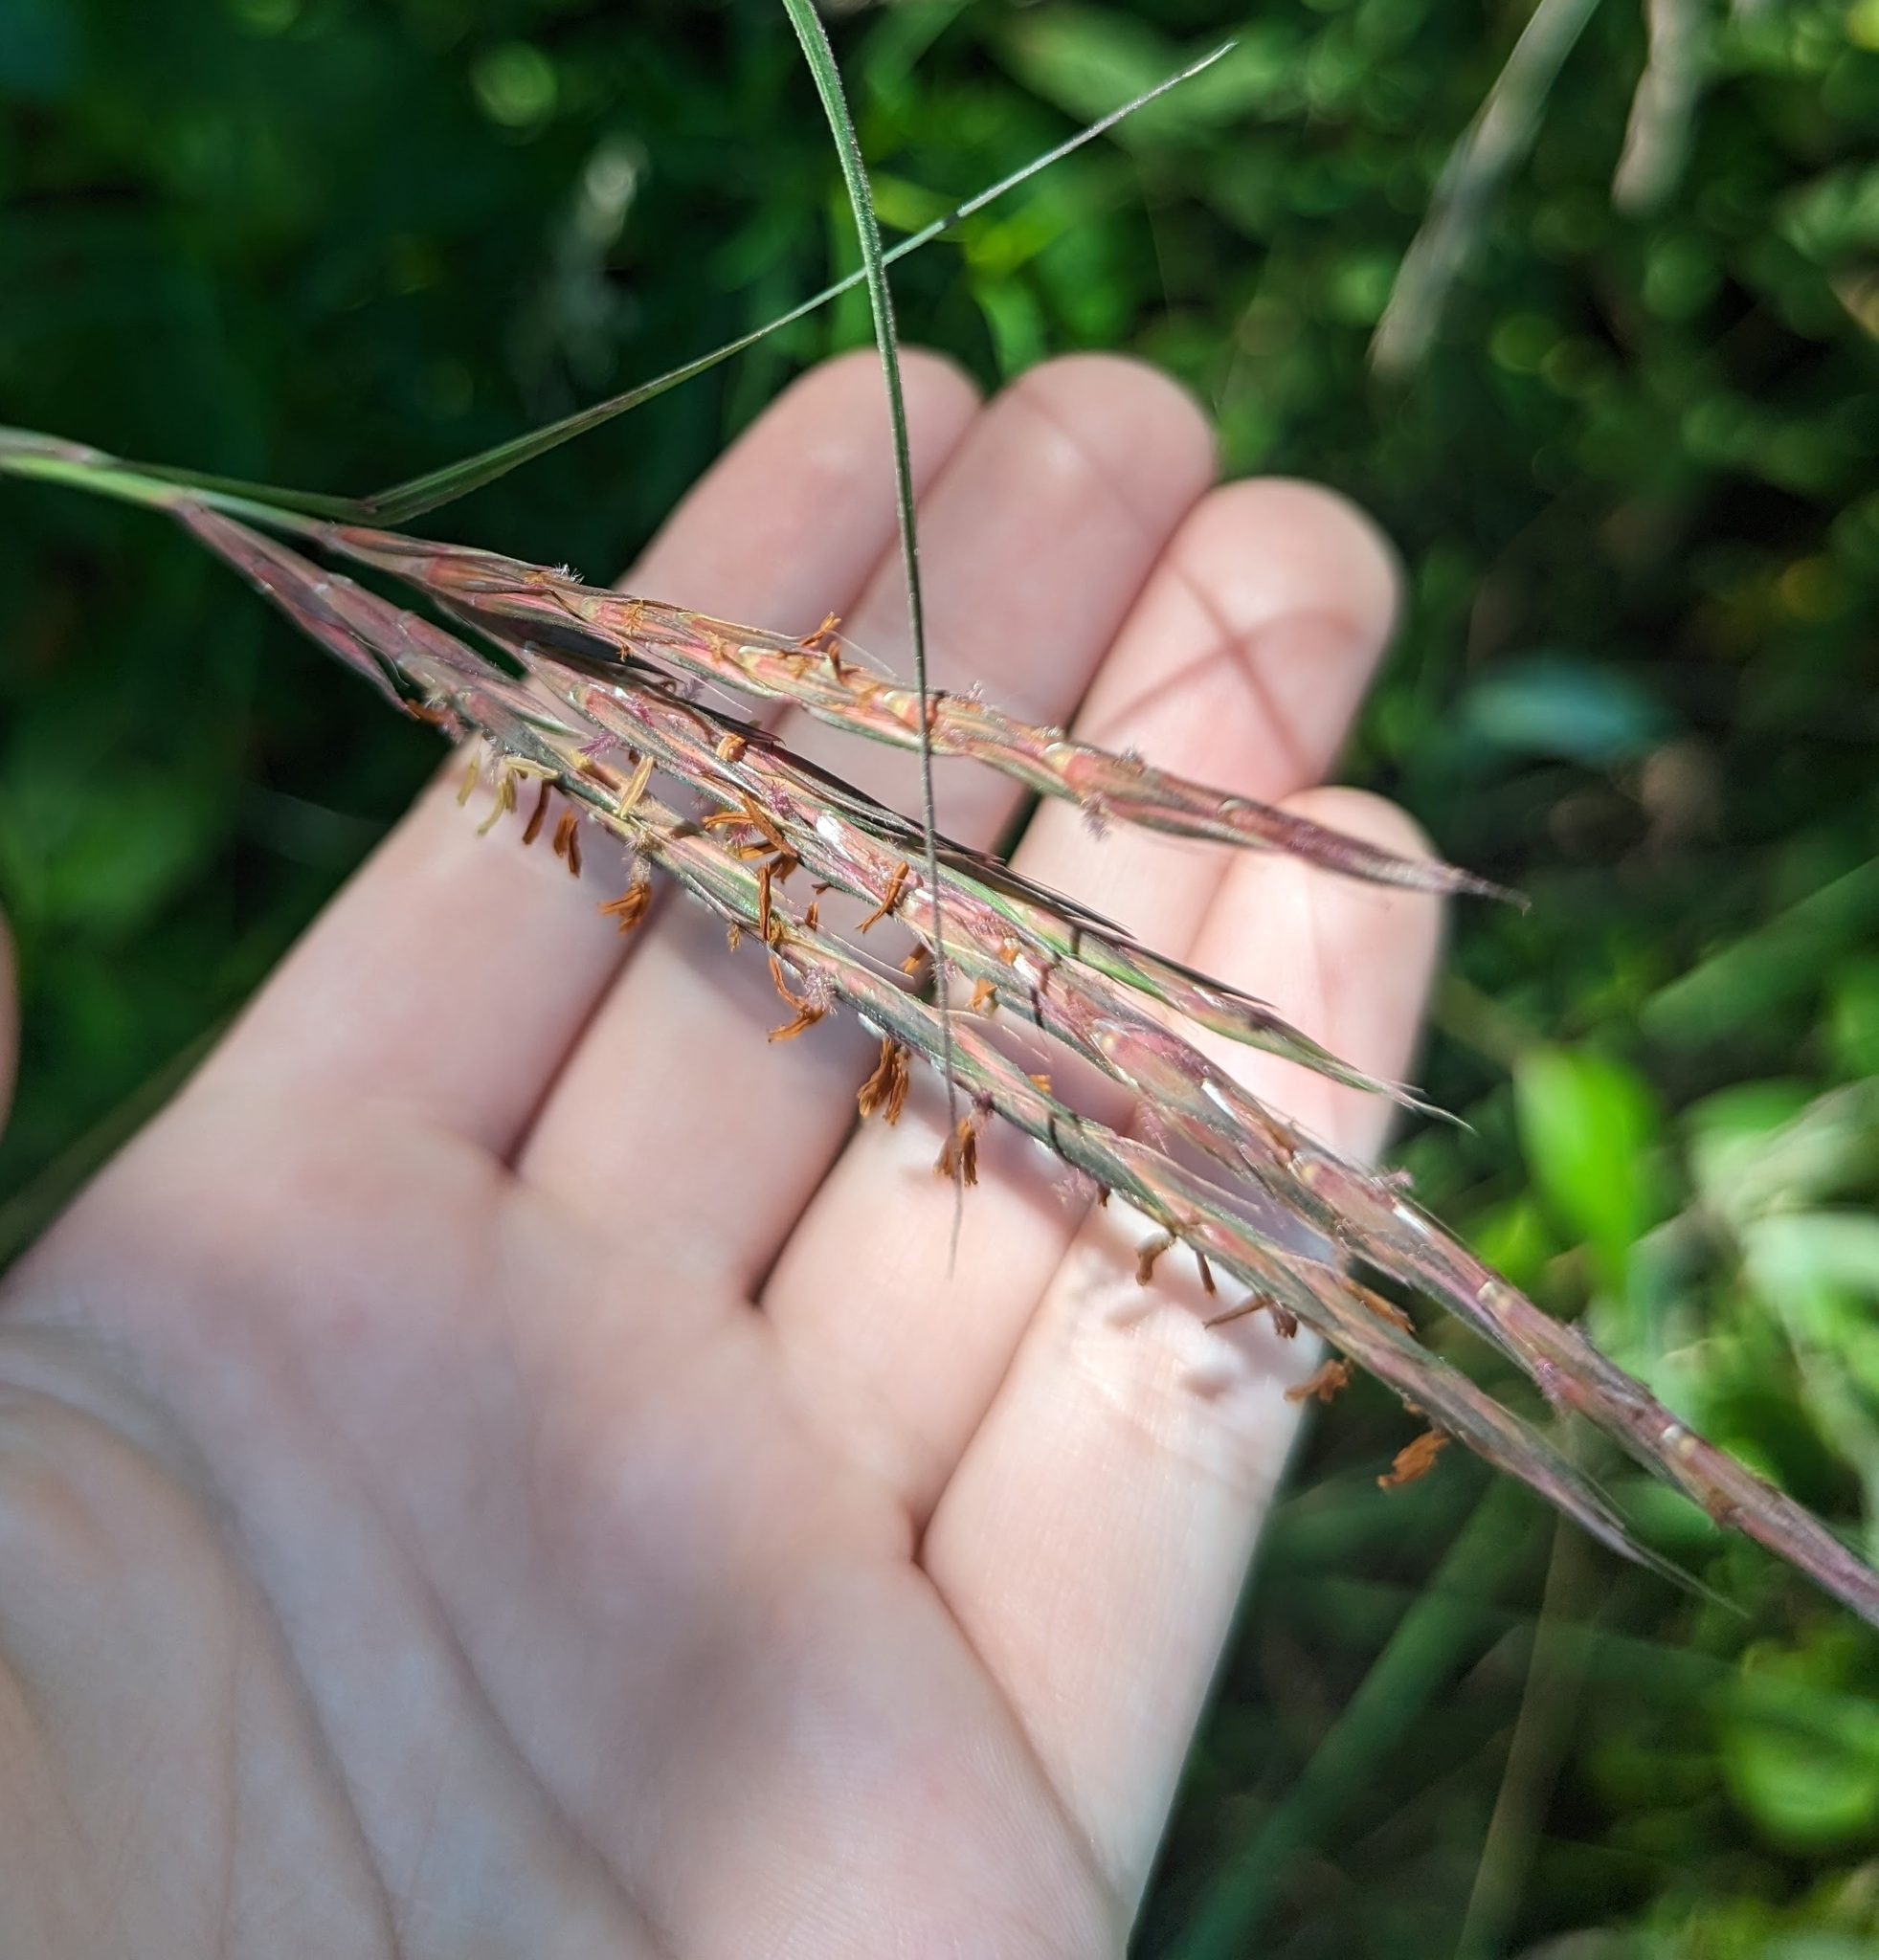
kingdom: Plantae
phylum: Tracheophyta
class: Liliopsida
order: Poales
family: Poaceae
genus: Andropogon
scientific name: Andropogon gerardi
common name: Big bluestem
